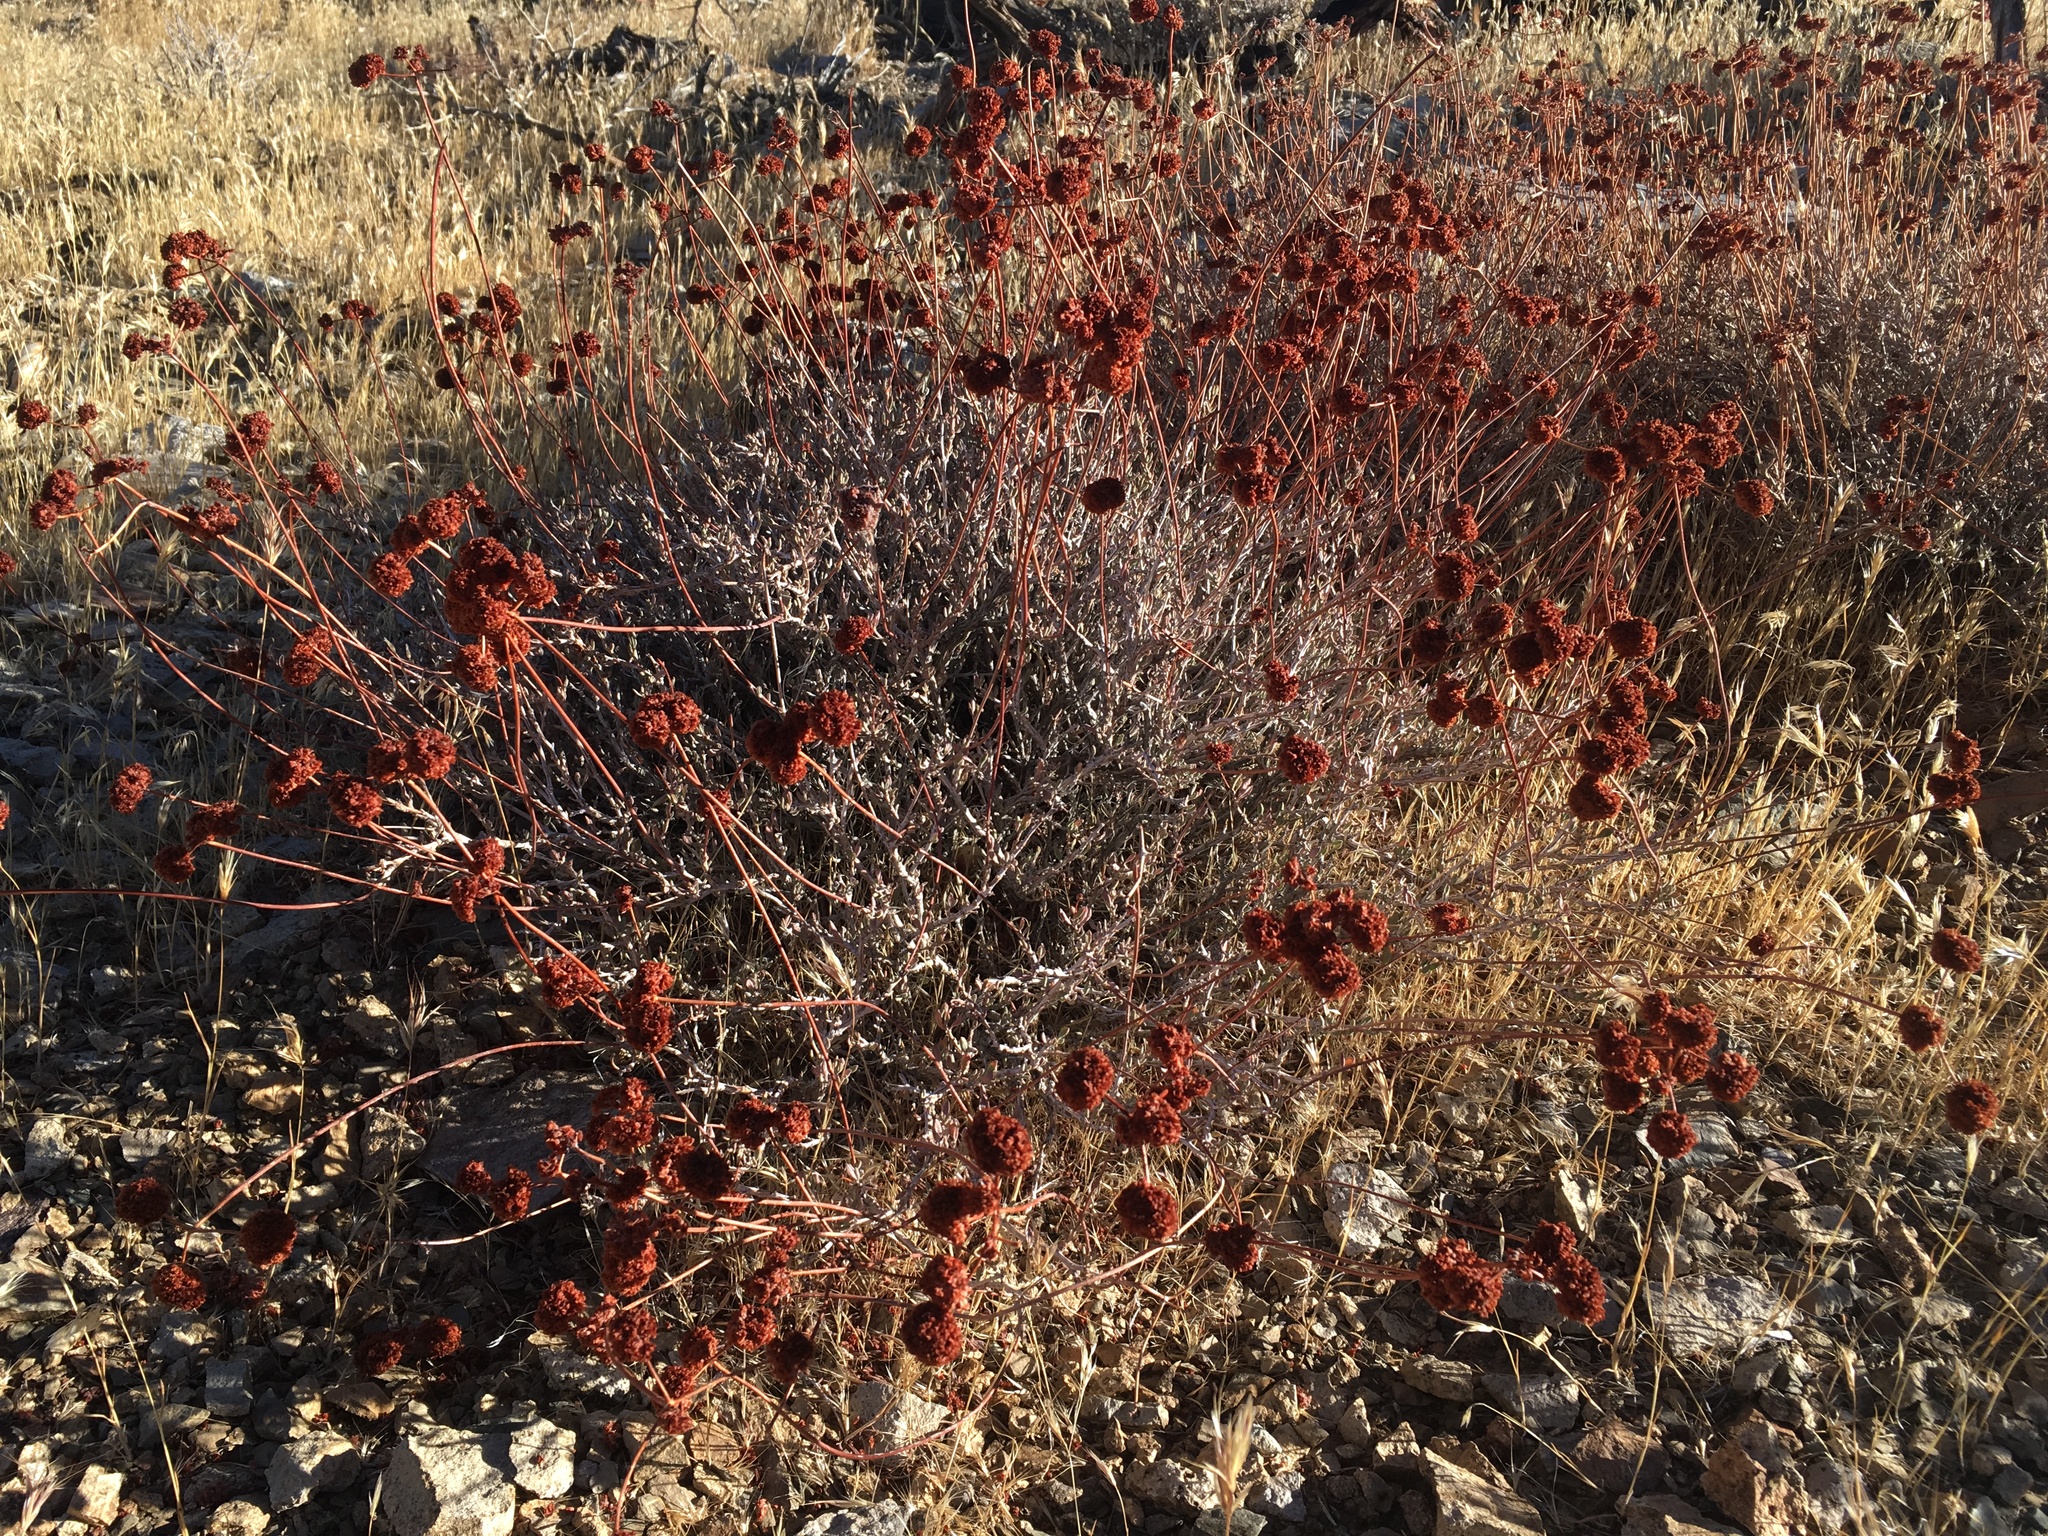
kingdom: Plantae
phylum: Tracheophyta
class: Magnoliopsida
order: Caryophyllales
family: Polygonaceae
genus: Eriogonum
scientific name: Eriogonum fasciculatum
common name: California wild buckwheat
